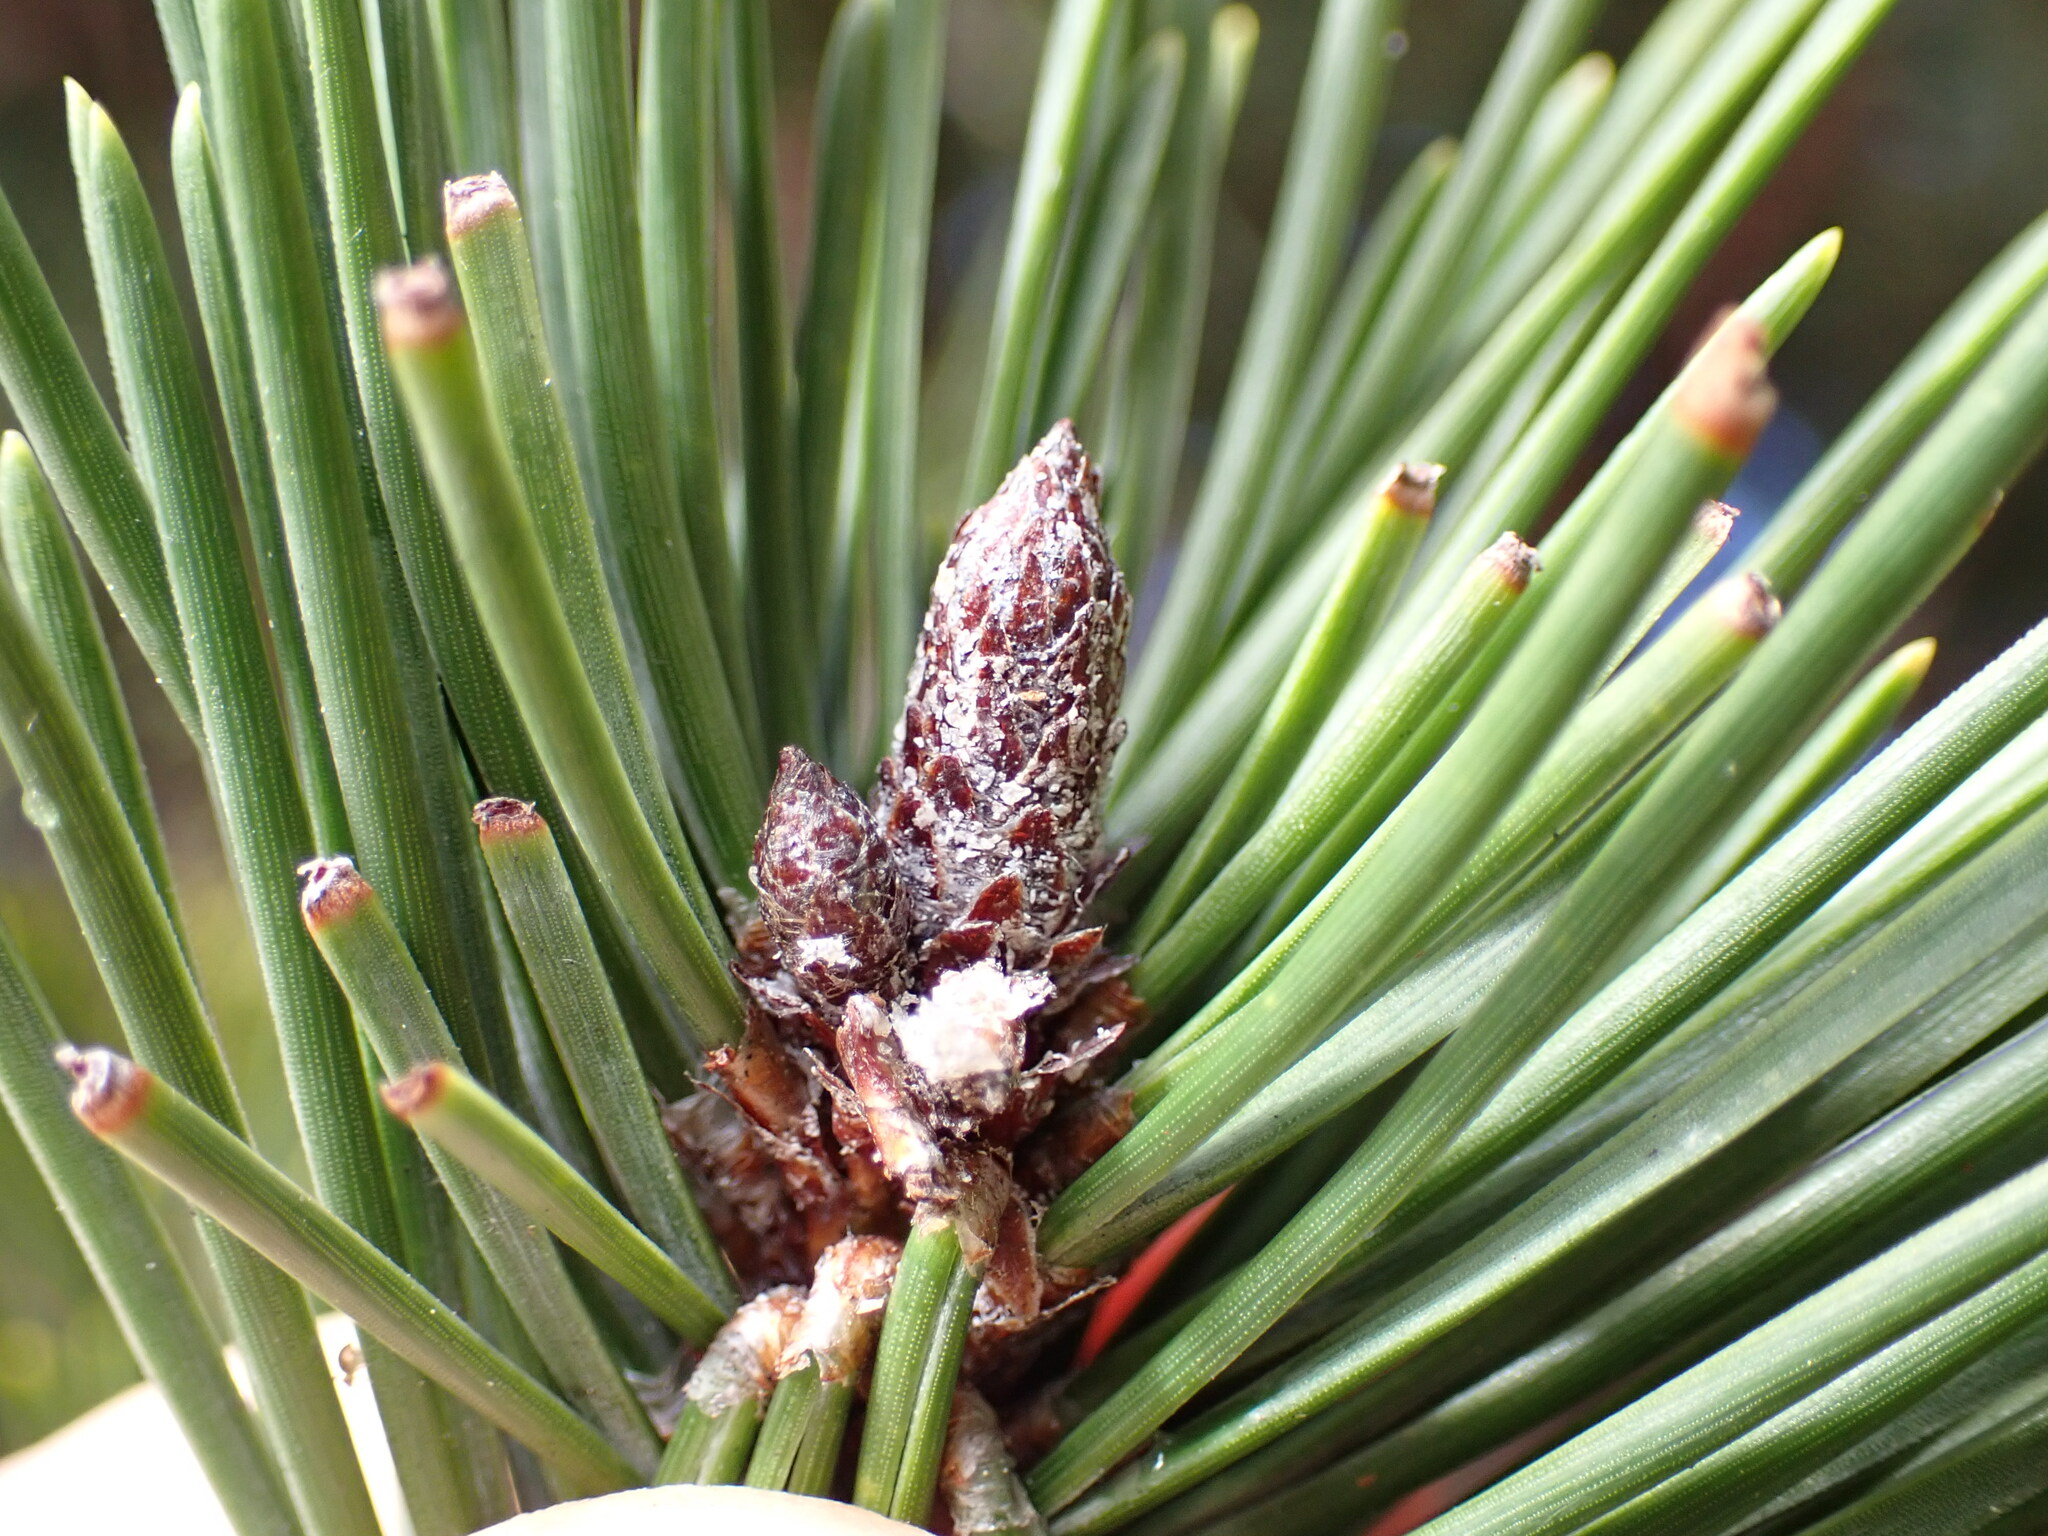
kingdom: Plantae
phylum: Tracheophyta
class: Pinopsida
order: Pinales
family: Pinaceae
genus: Pinus
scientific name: Pinus contorta
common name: Lodgepole pine
